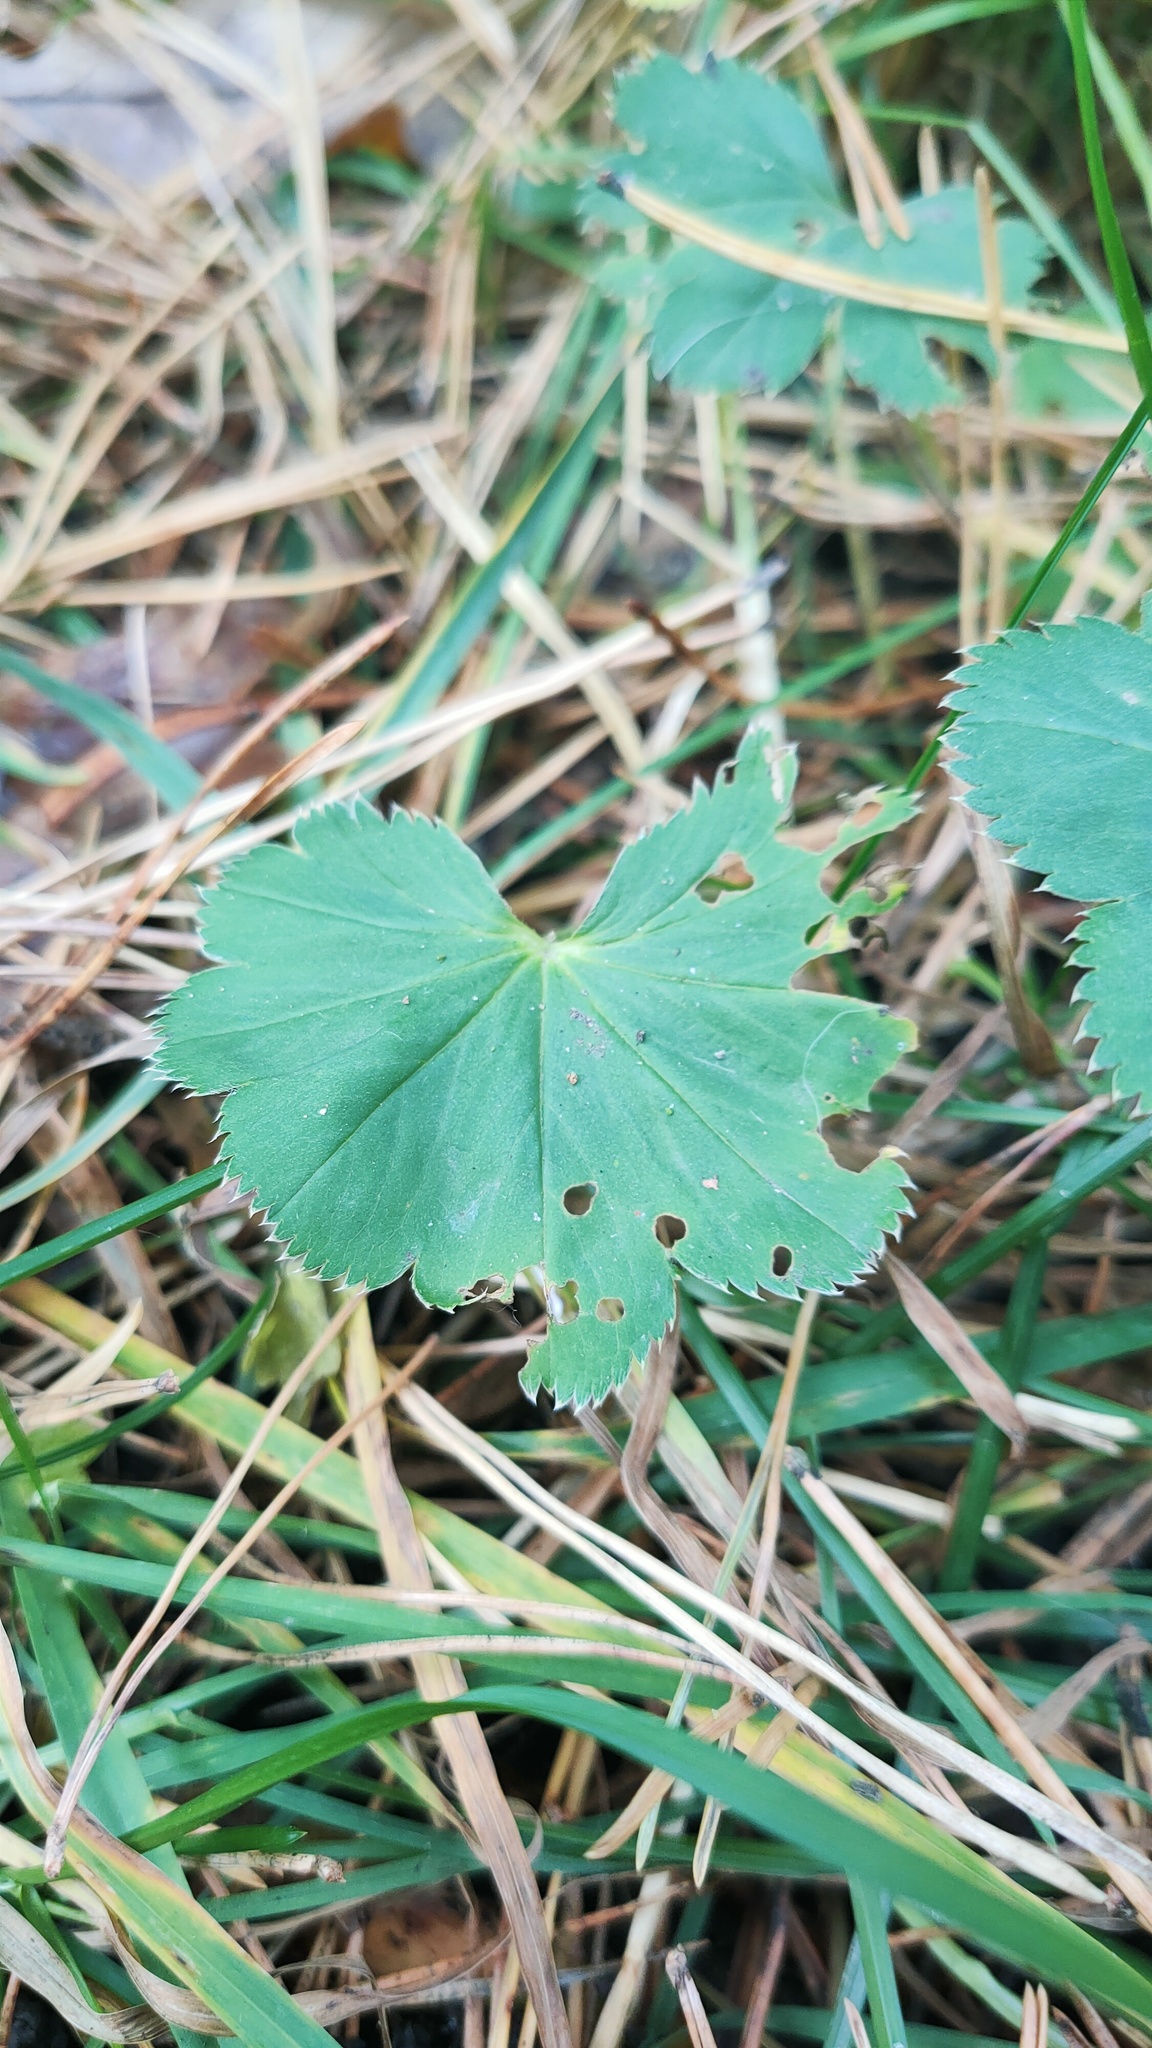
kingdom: Plantae
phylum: Tracheophyta
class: Magnoliopsida
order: Rosales
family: Rosaceae
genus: Alchemilla
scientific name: Alchemilla
